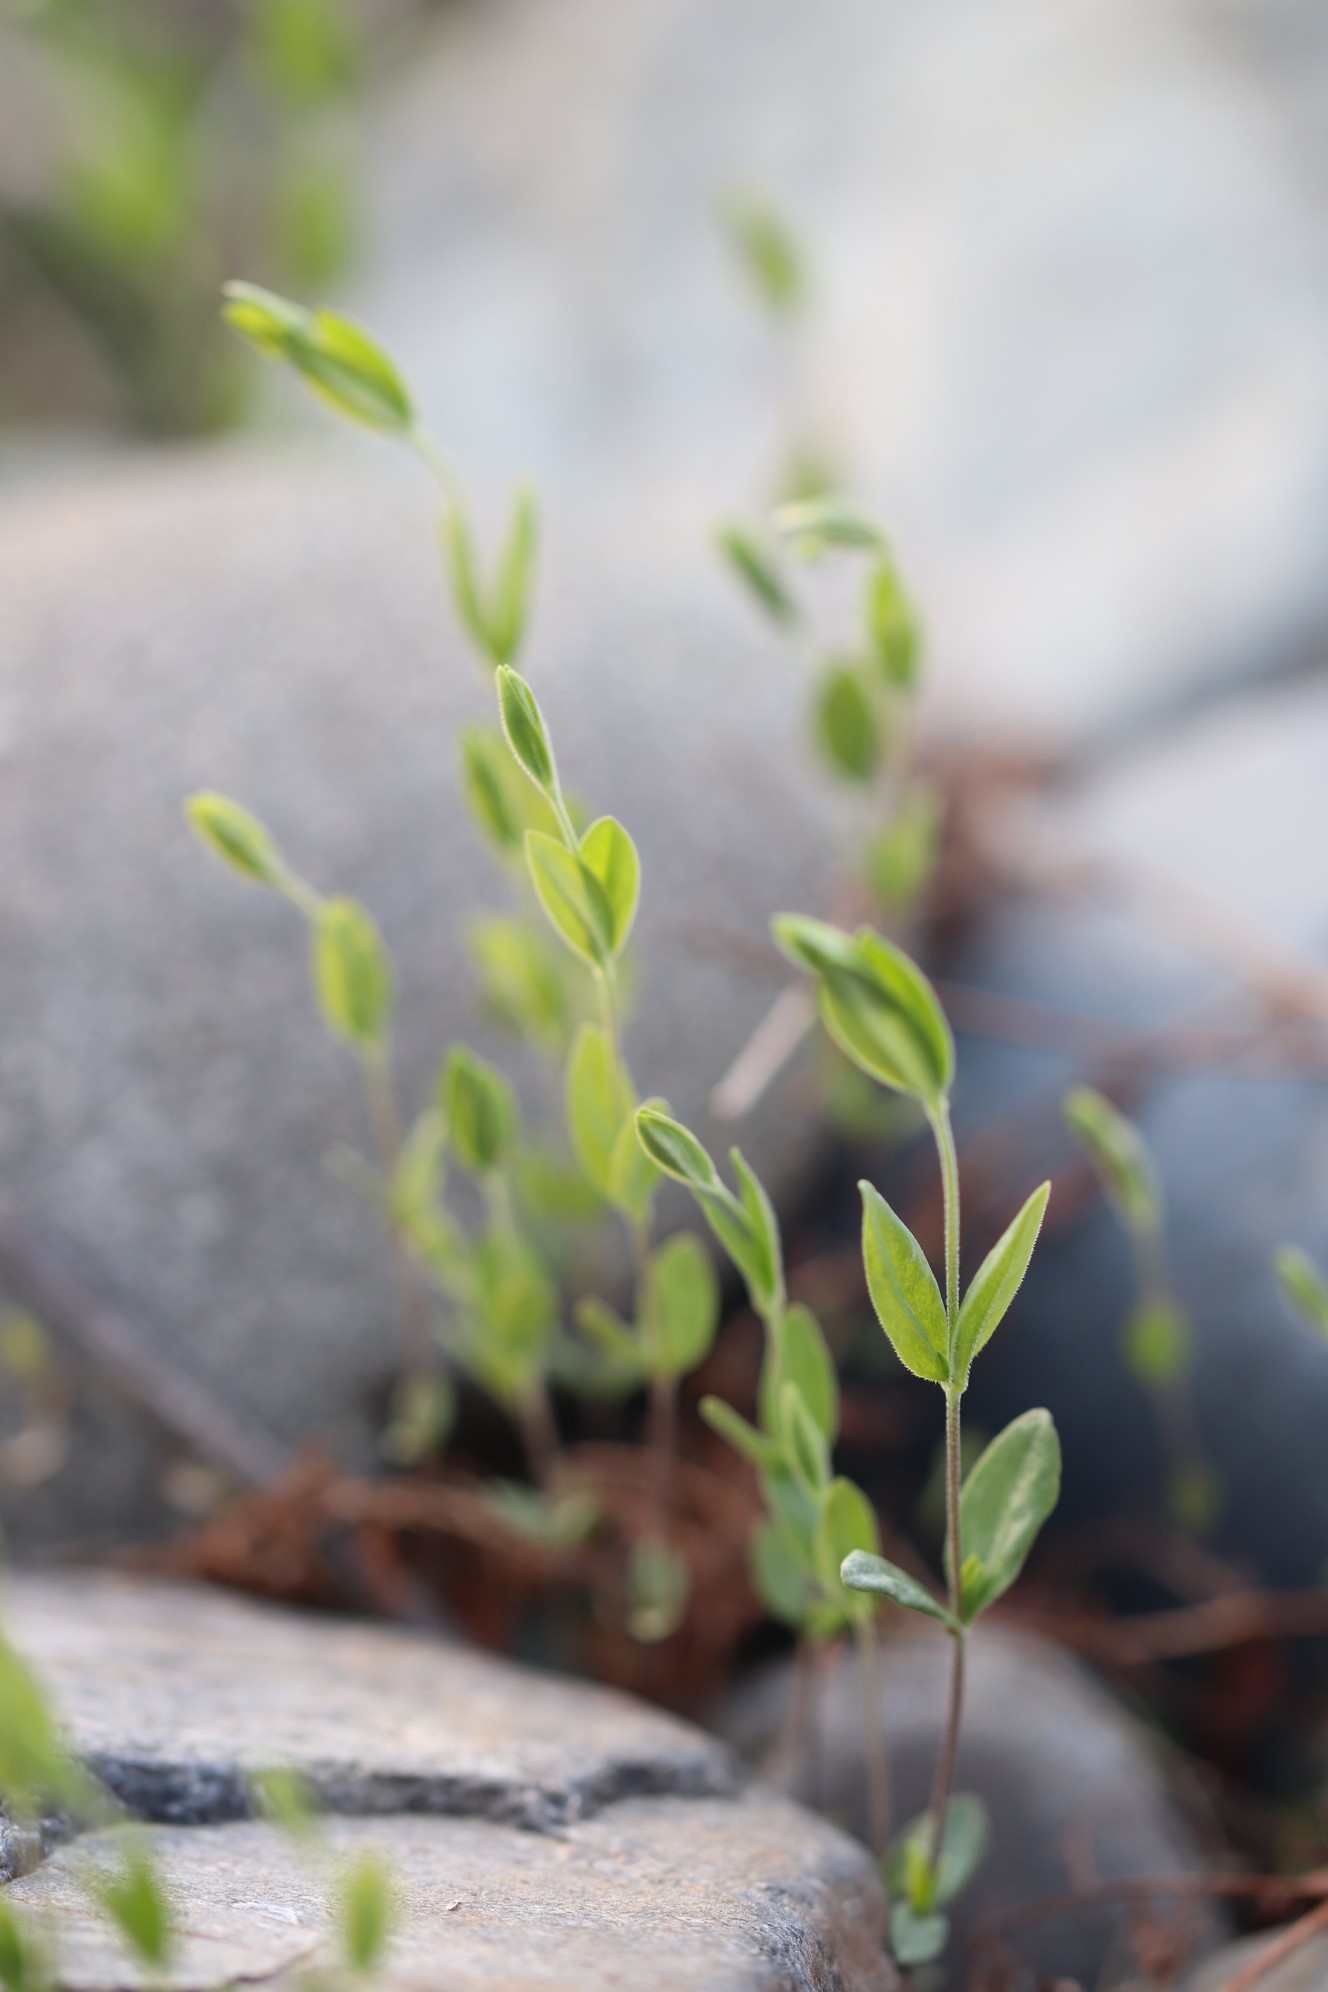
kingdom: Plantae
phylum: Tracheophyta
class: Magnoliopsida
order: Caryophyllales
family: Caryophyllaceae
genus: Moehringia
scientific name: Moehringia lateriflora
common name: Blunt-leaved sandwort
